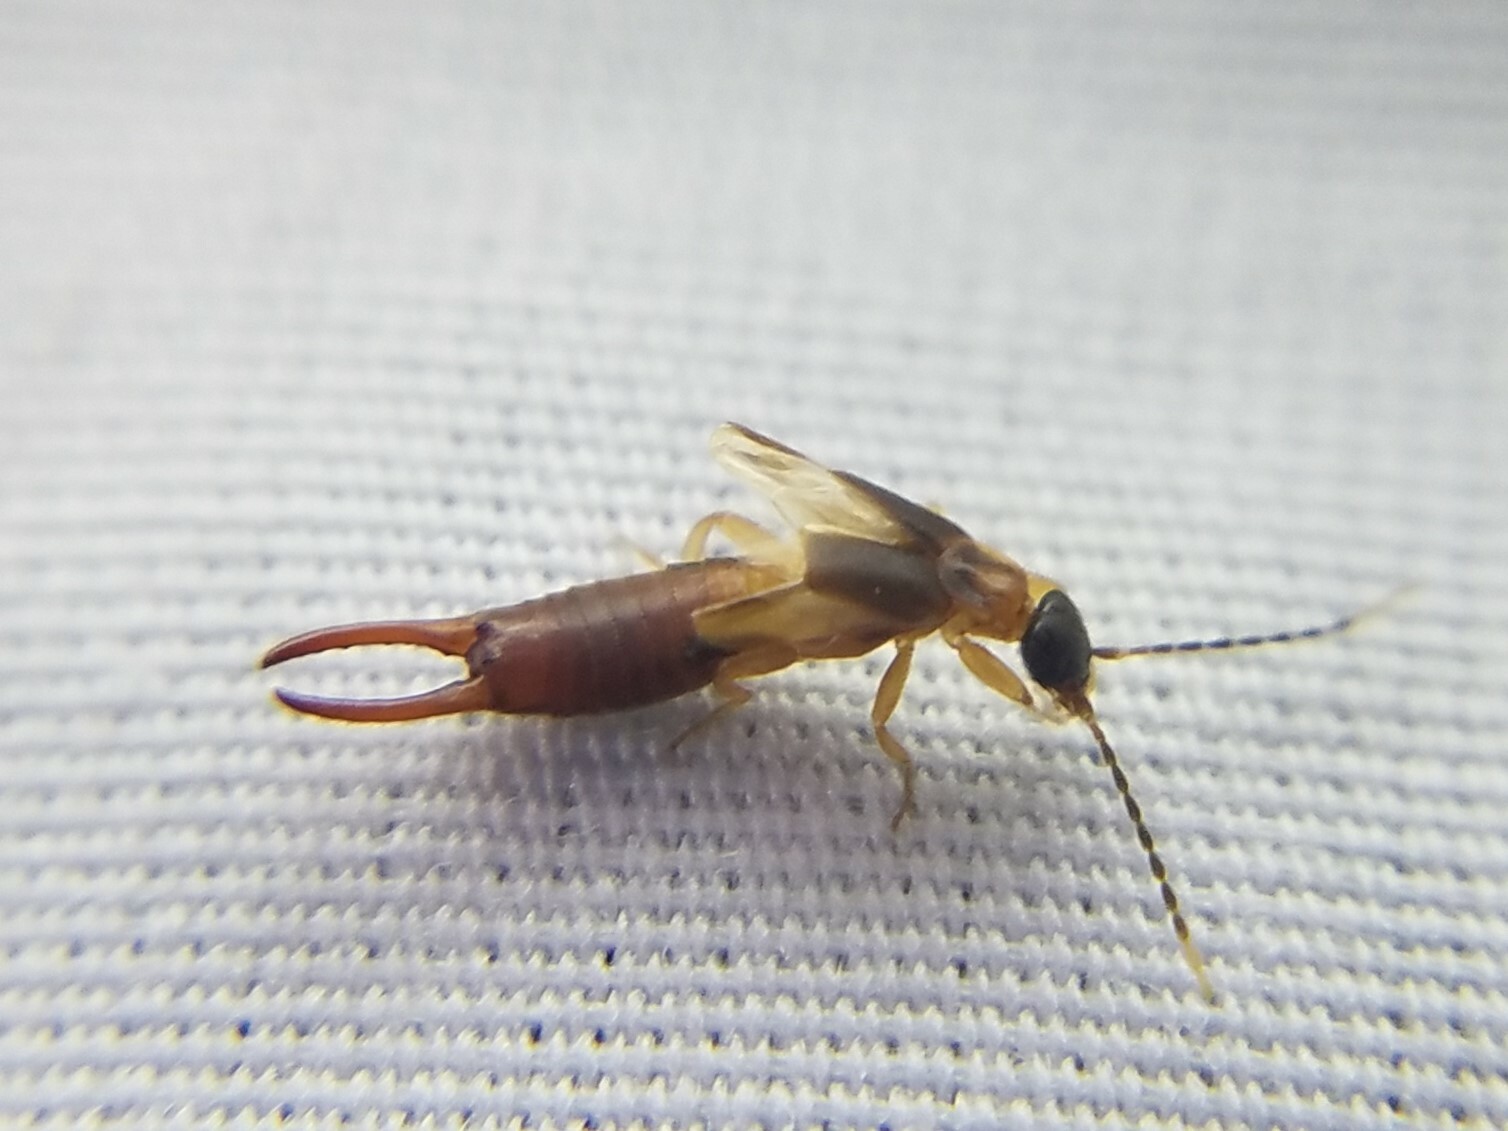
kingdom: Animalia
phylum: Arthropoda
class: Insecta
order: Dermaptera
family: Spongiphoridae
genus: Labia
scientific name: Labia minor
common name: Lesser earwig
